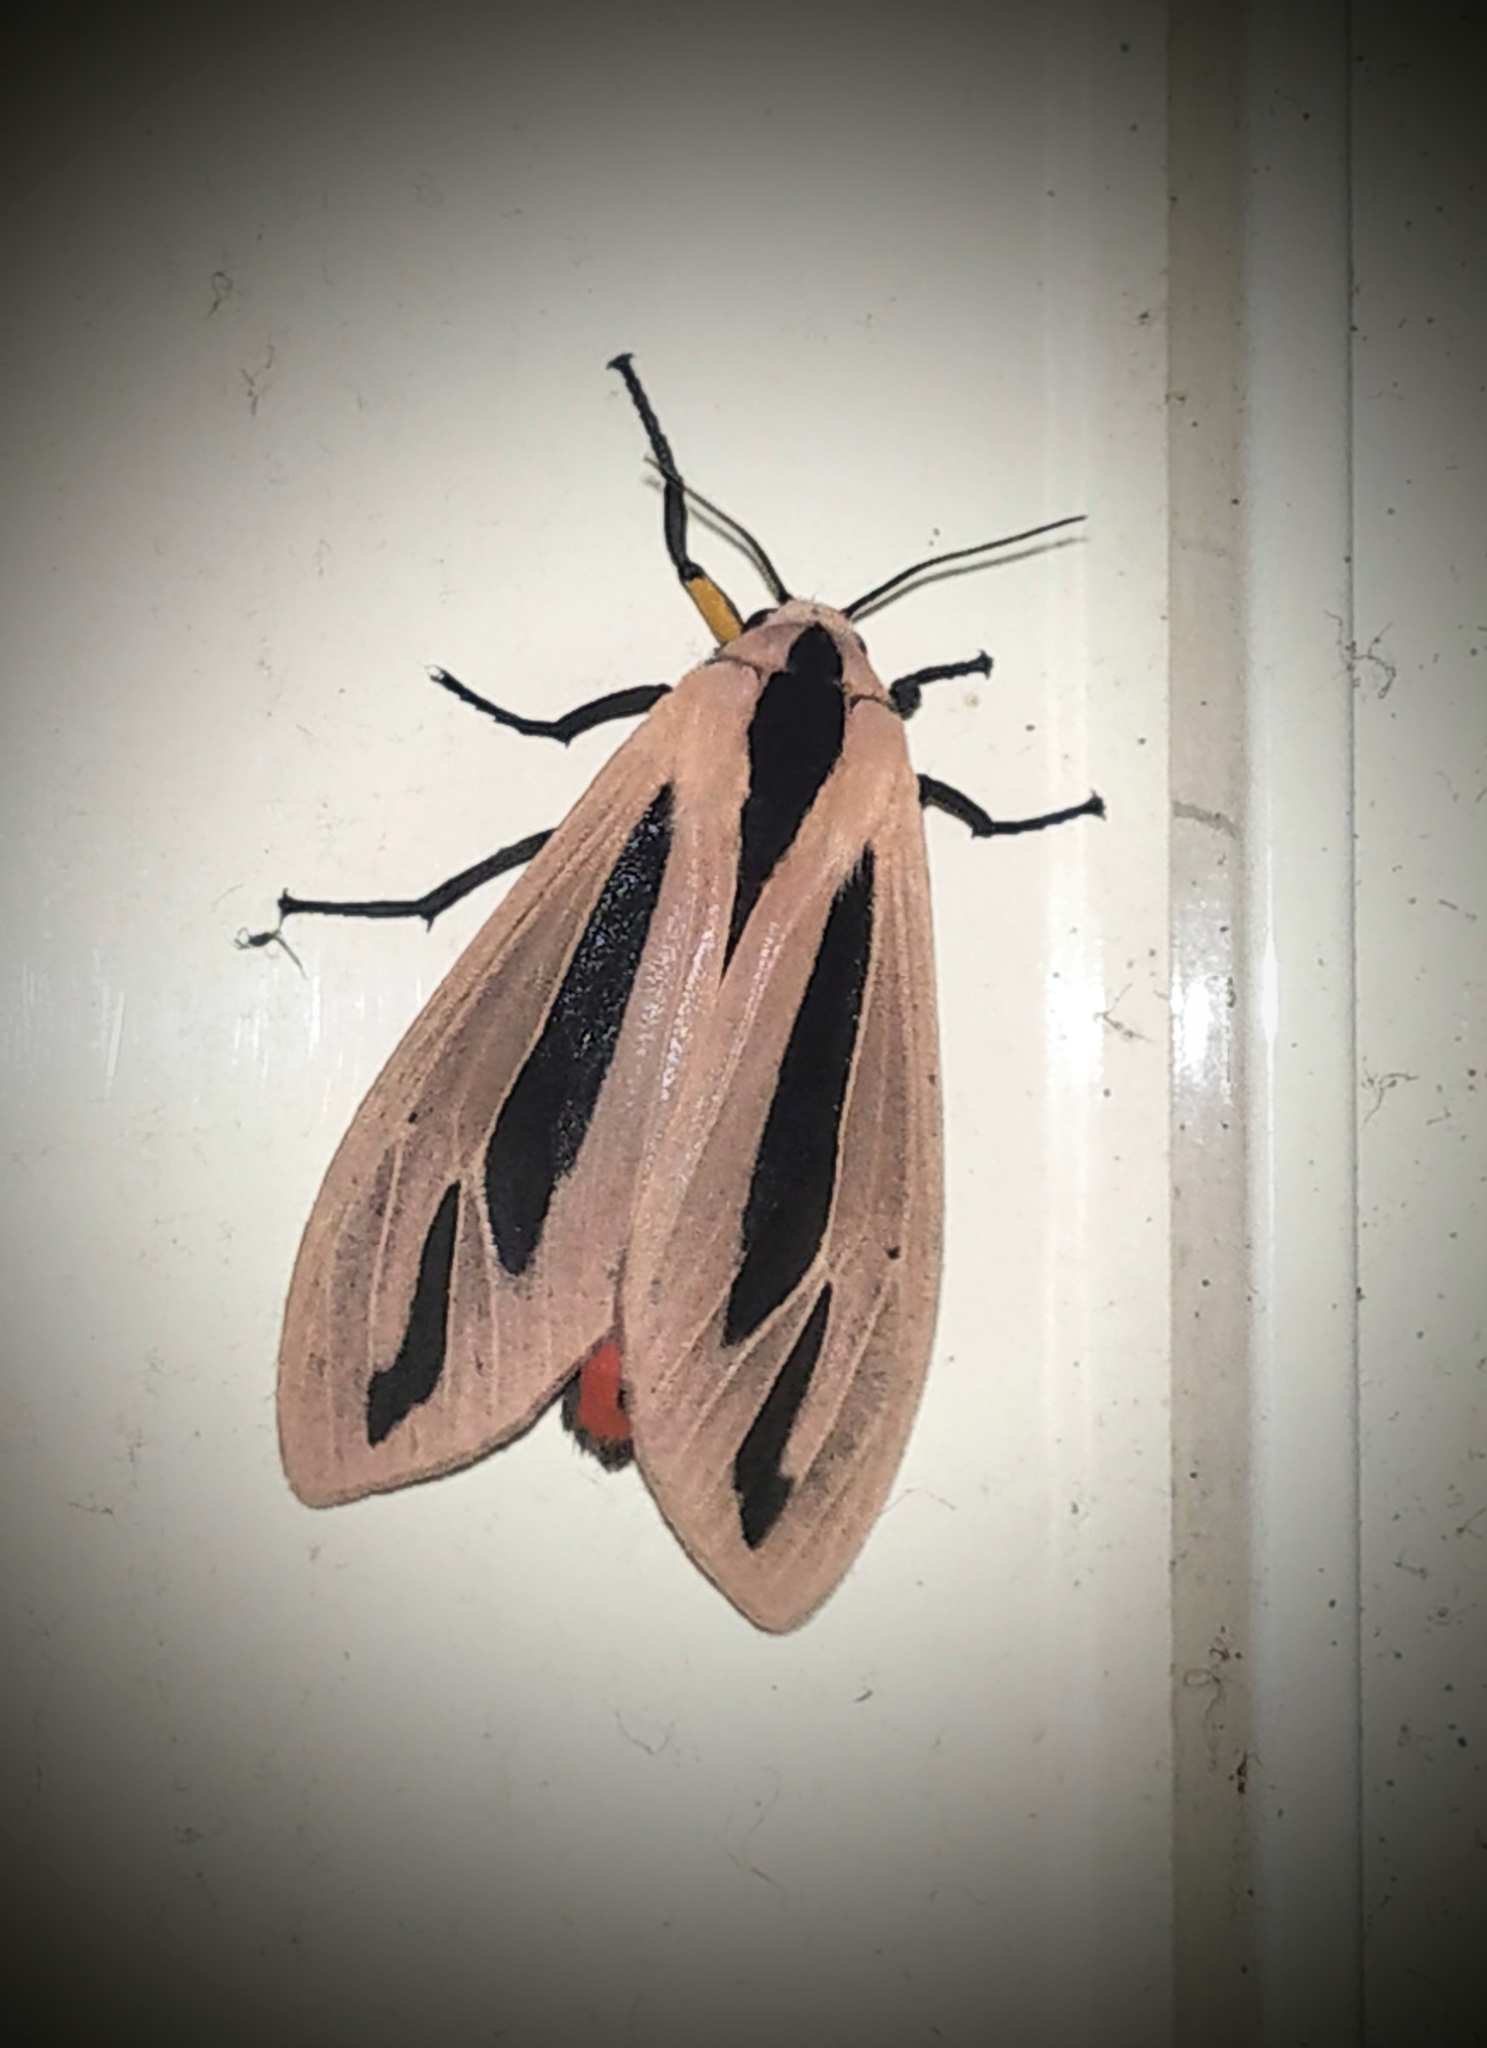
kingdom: Animalia
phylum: Arthropoda
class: Insecta
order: Lepidoptera
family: Erebidae
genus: Creatonotos
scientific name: Creatonotos
